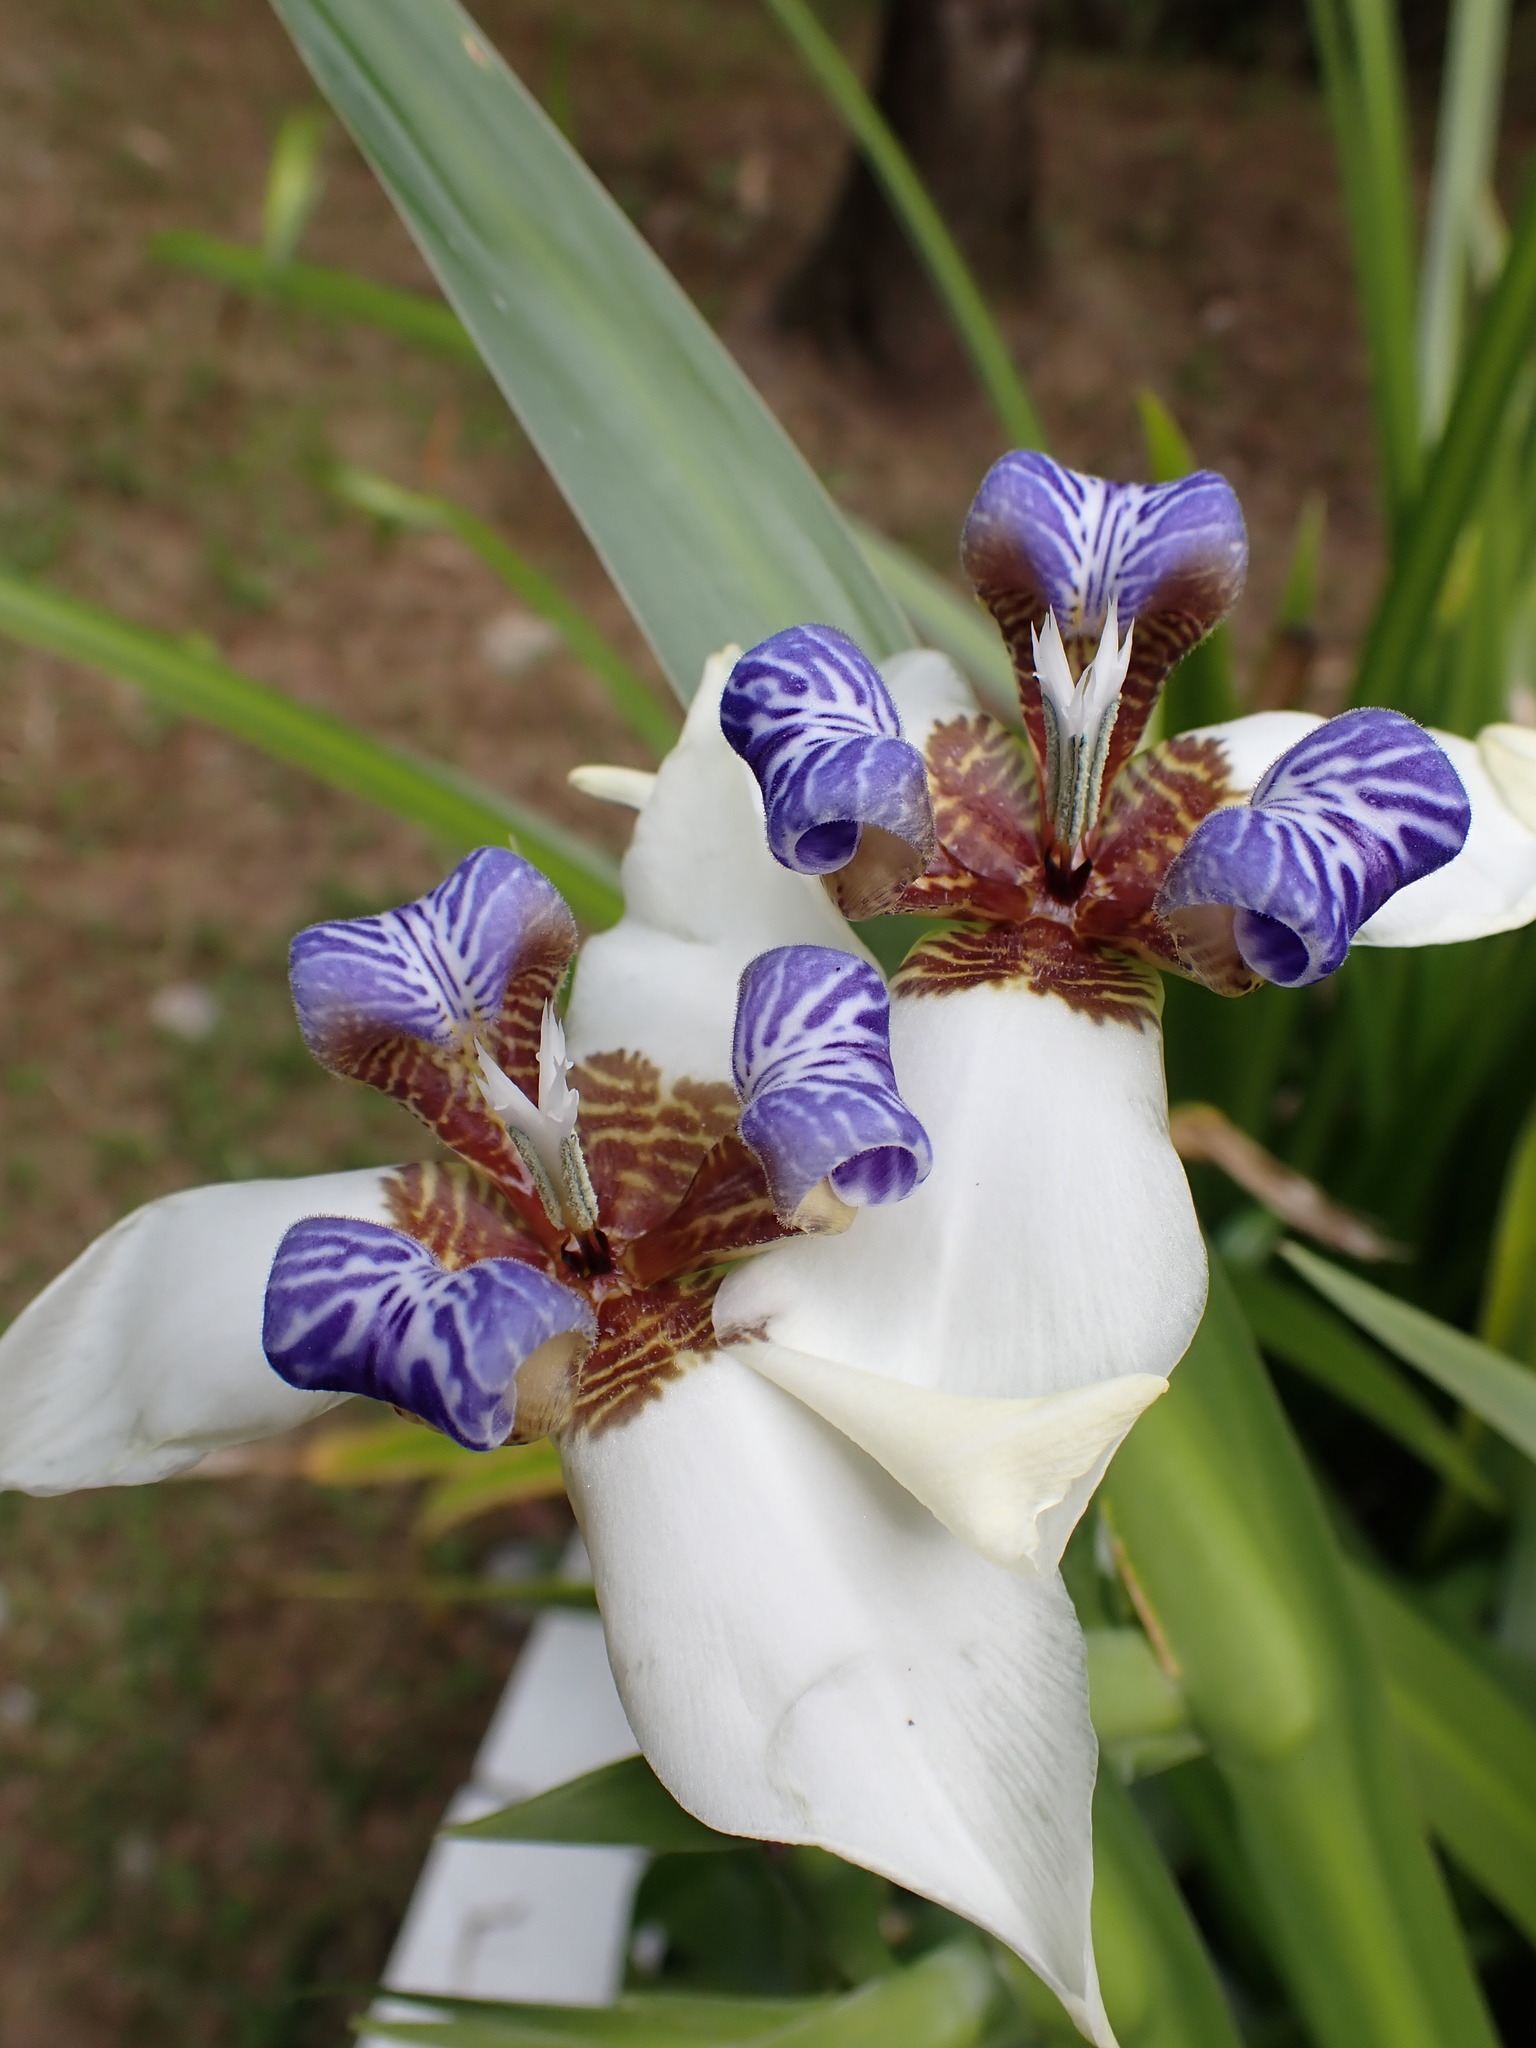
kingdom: Plantae
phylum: Tracheophyta
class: Liliopsida
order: Asparagales
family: Iridaceae
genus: Trimezia
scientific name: Trimezia gracilis
